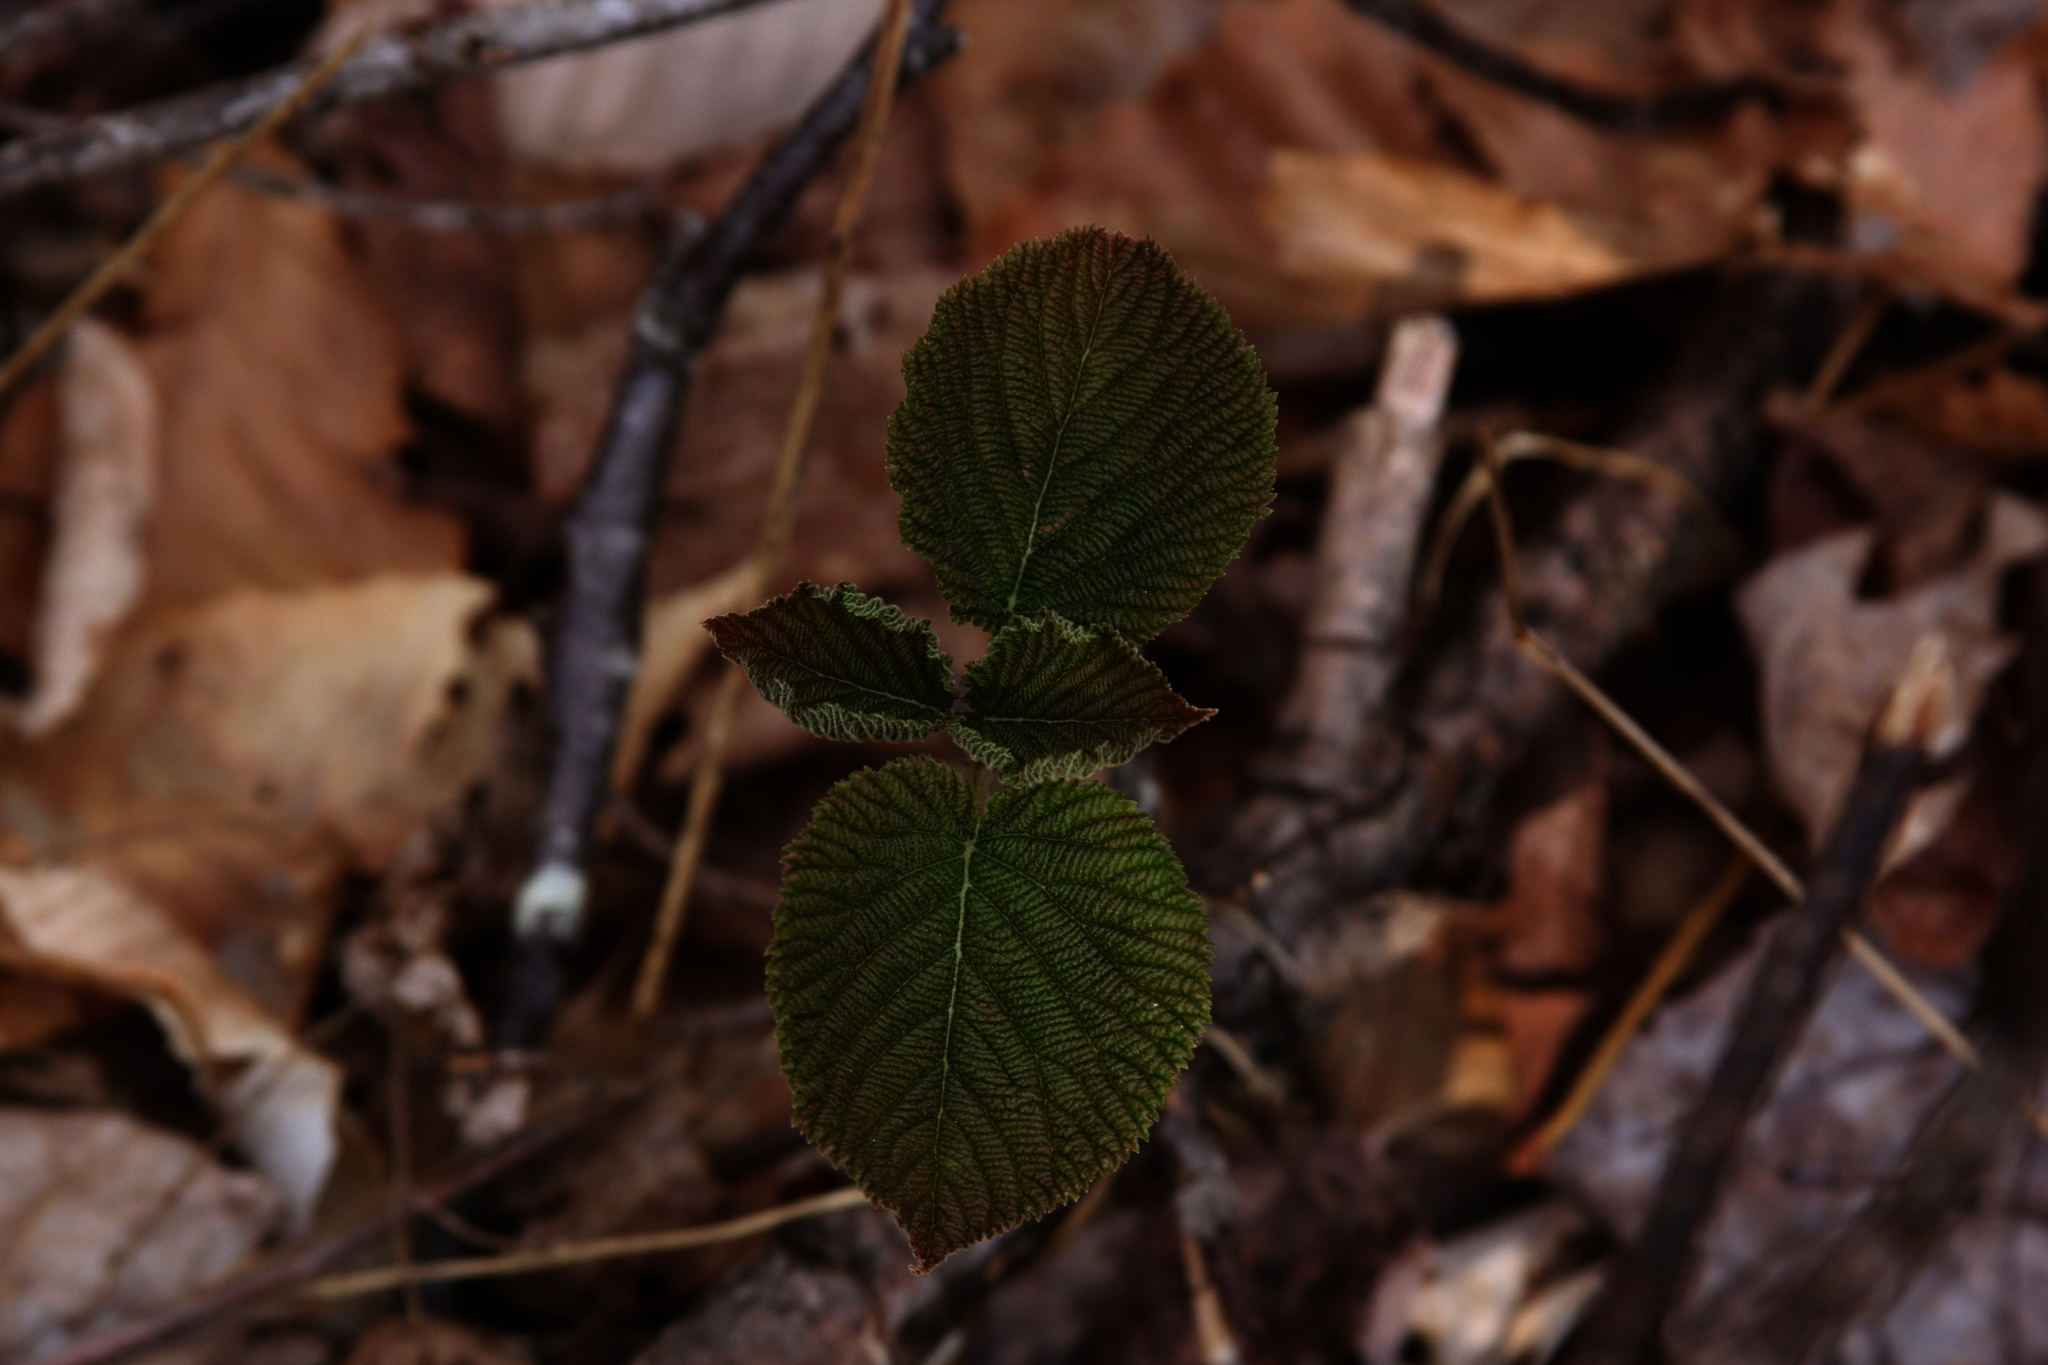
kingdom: Plantae
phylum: Tracheophyta
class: Magnoliopsida
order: Dipsacales
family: Viburnaceae
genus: Viburnum
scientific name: Viburnum lantanoides
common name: Hobblebush
